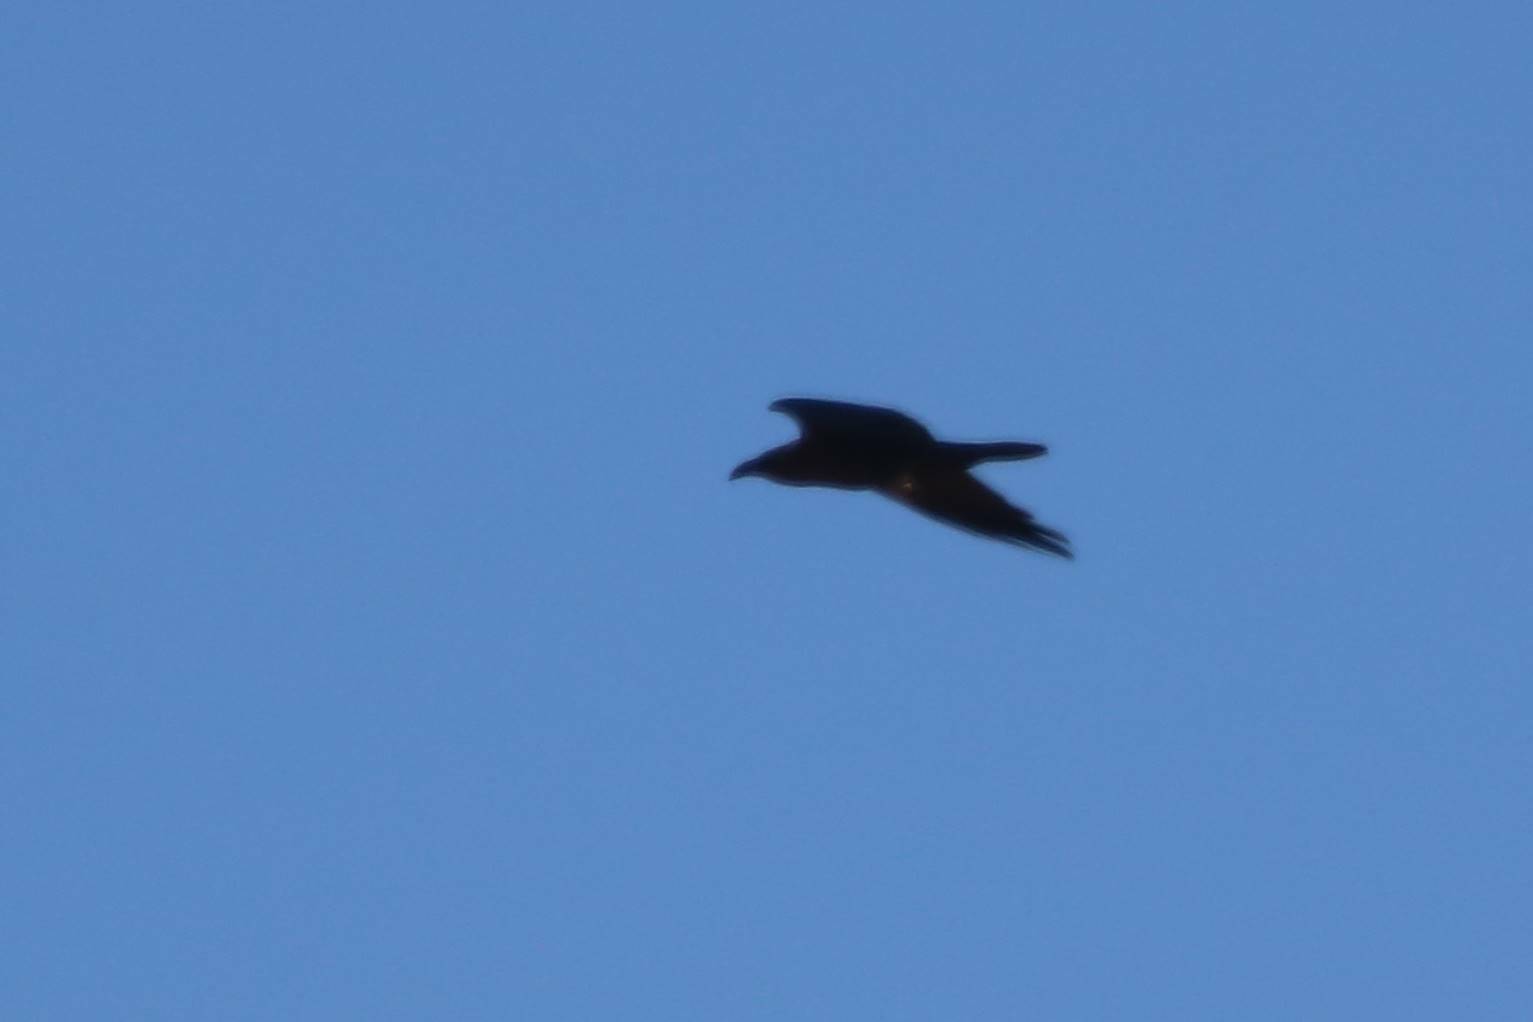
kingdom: Animalia
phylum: Chordata
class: Aves
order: Passeriformes
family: Corvidae
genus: Corvus
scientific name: Corvus ruficollis
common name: Brown-necked raven
